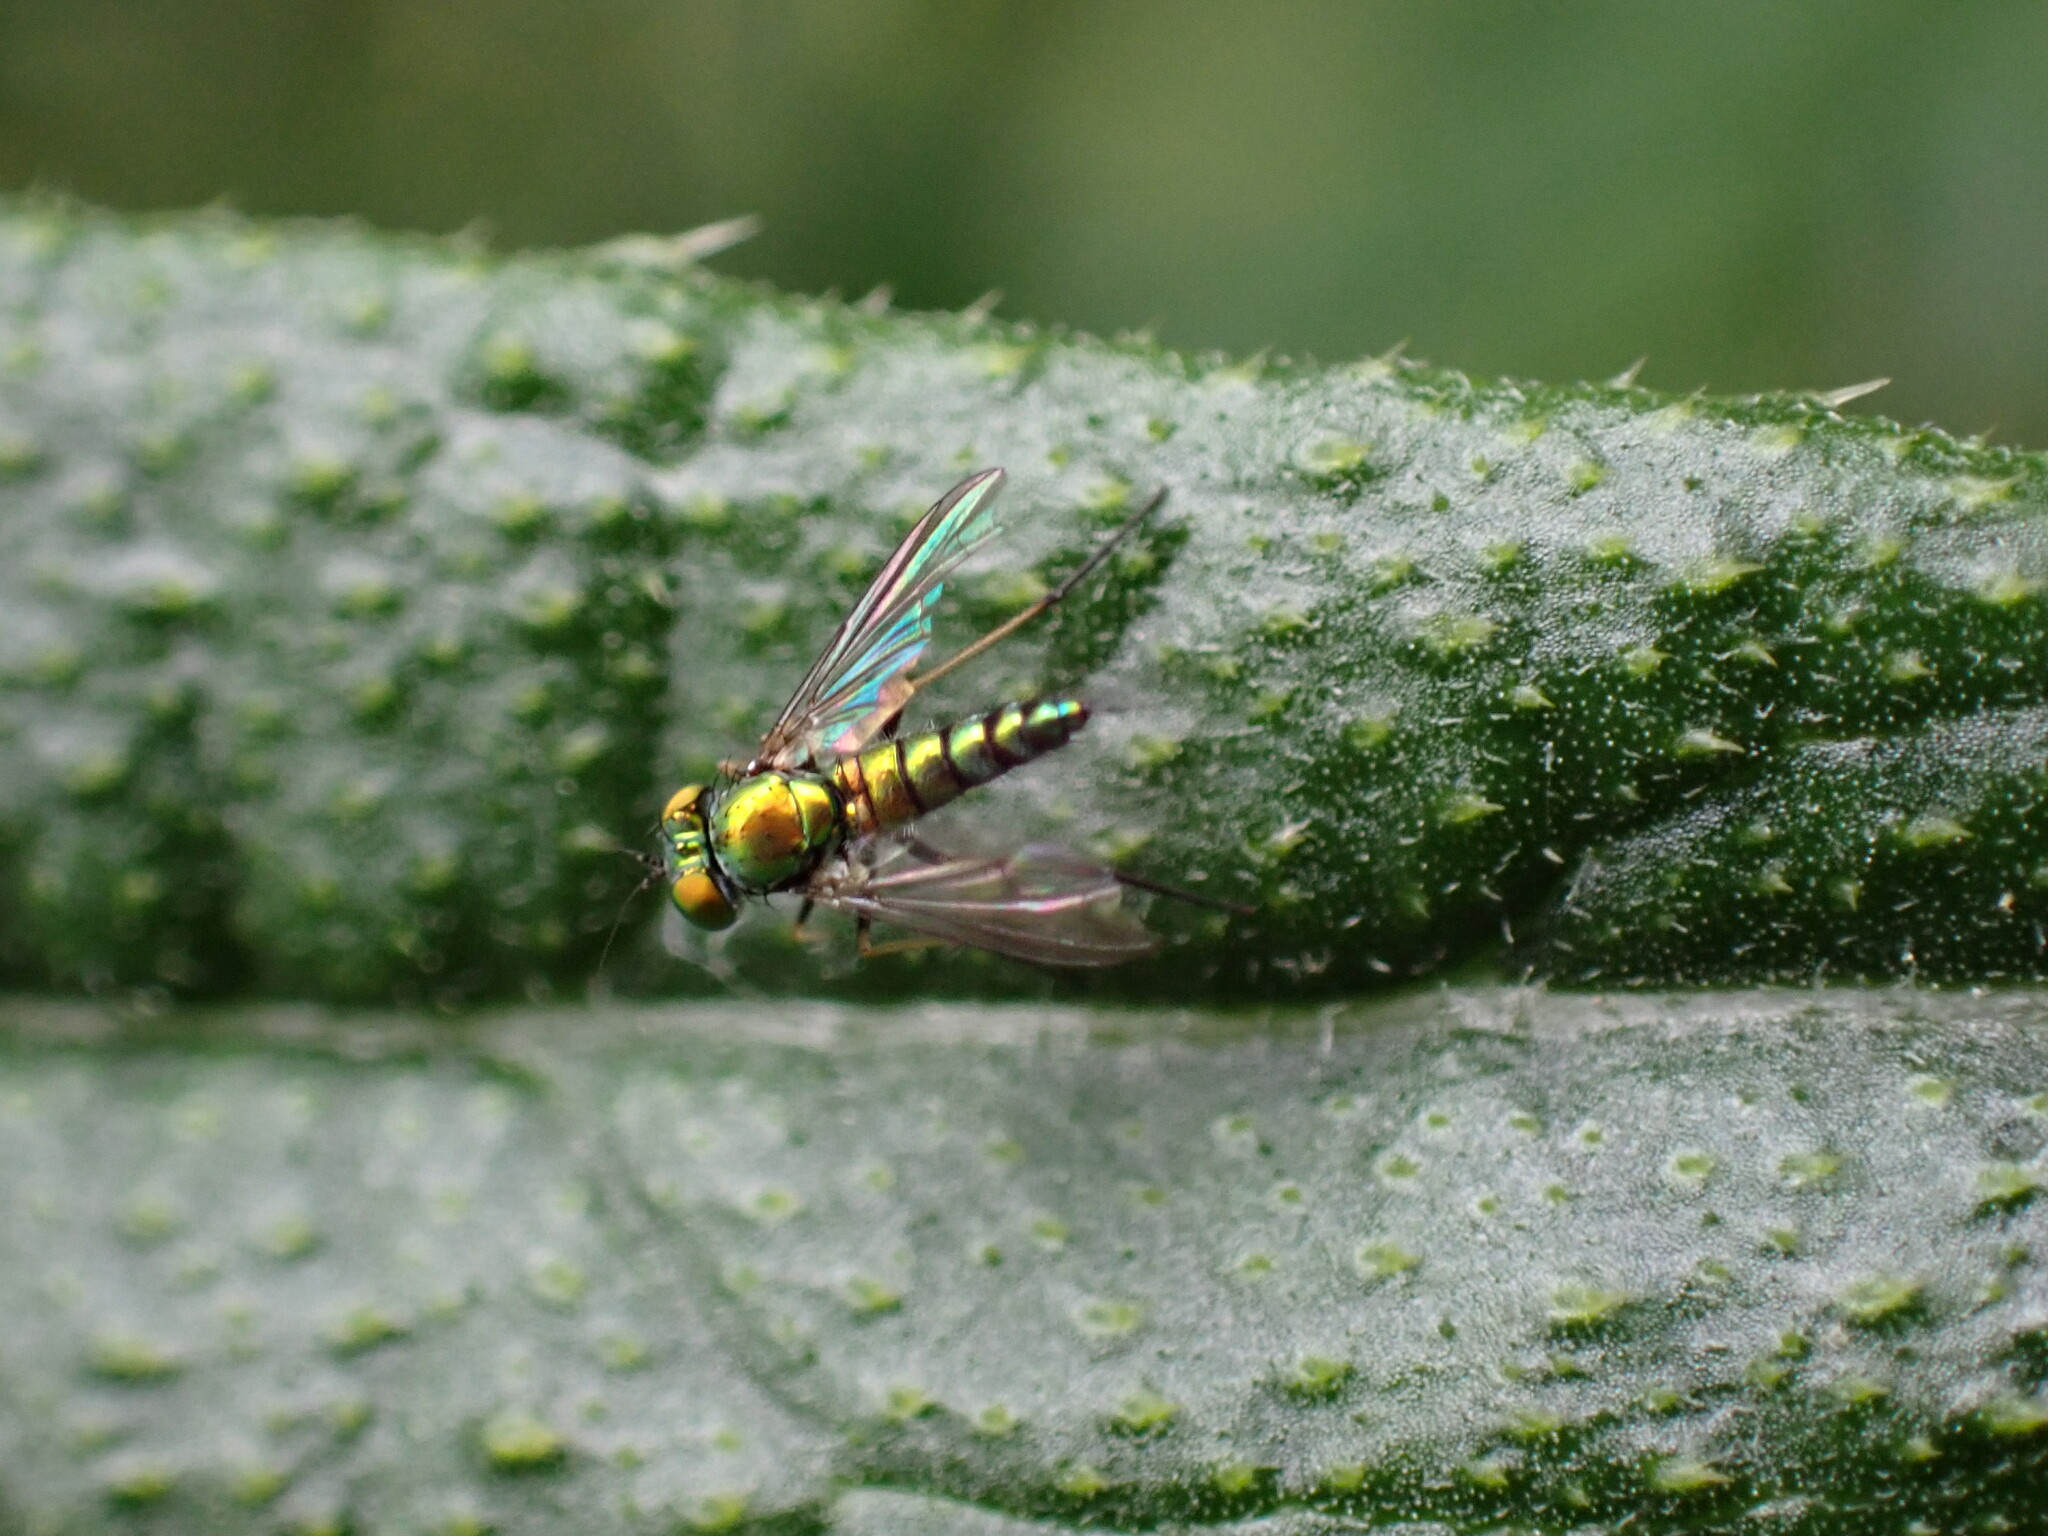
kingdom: Animalia
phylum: Arthropoda
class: Insecta
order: Diptera
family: Dolichopodidae
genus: Condylostylus
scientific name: Condylostylus
